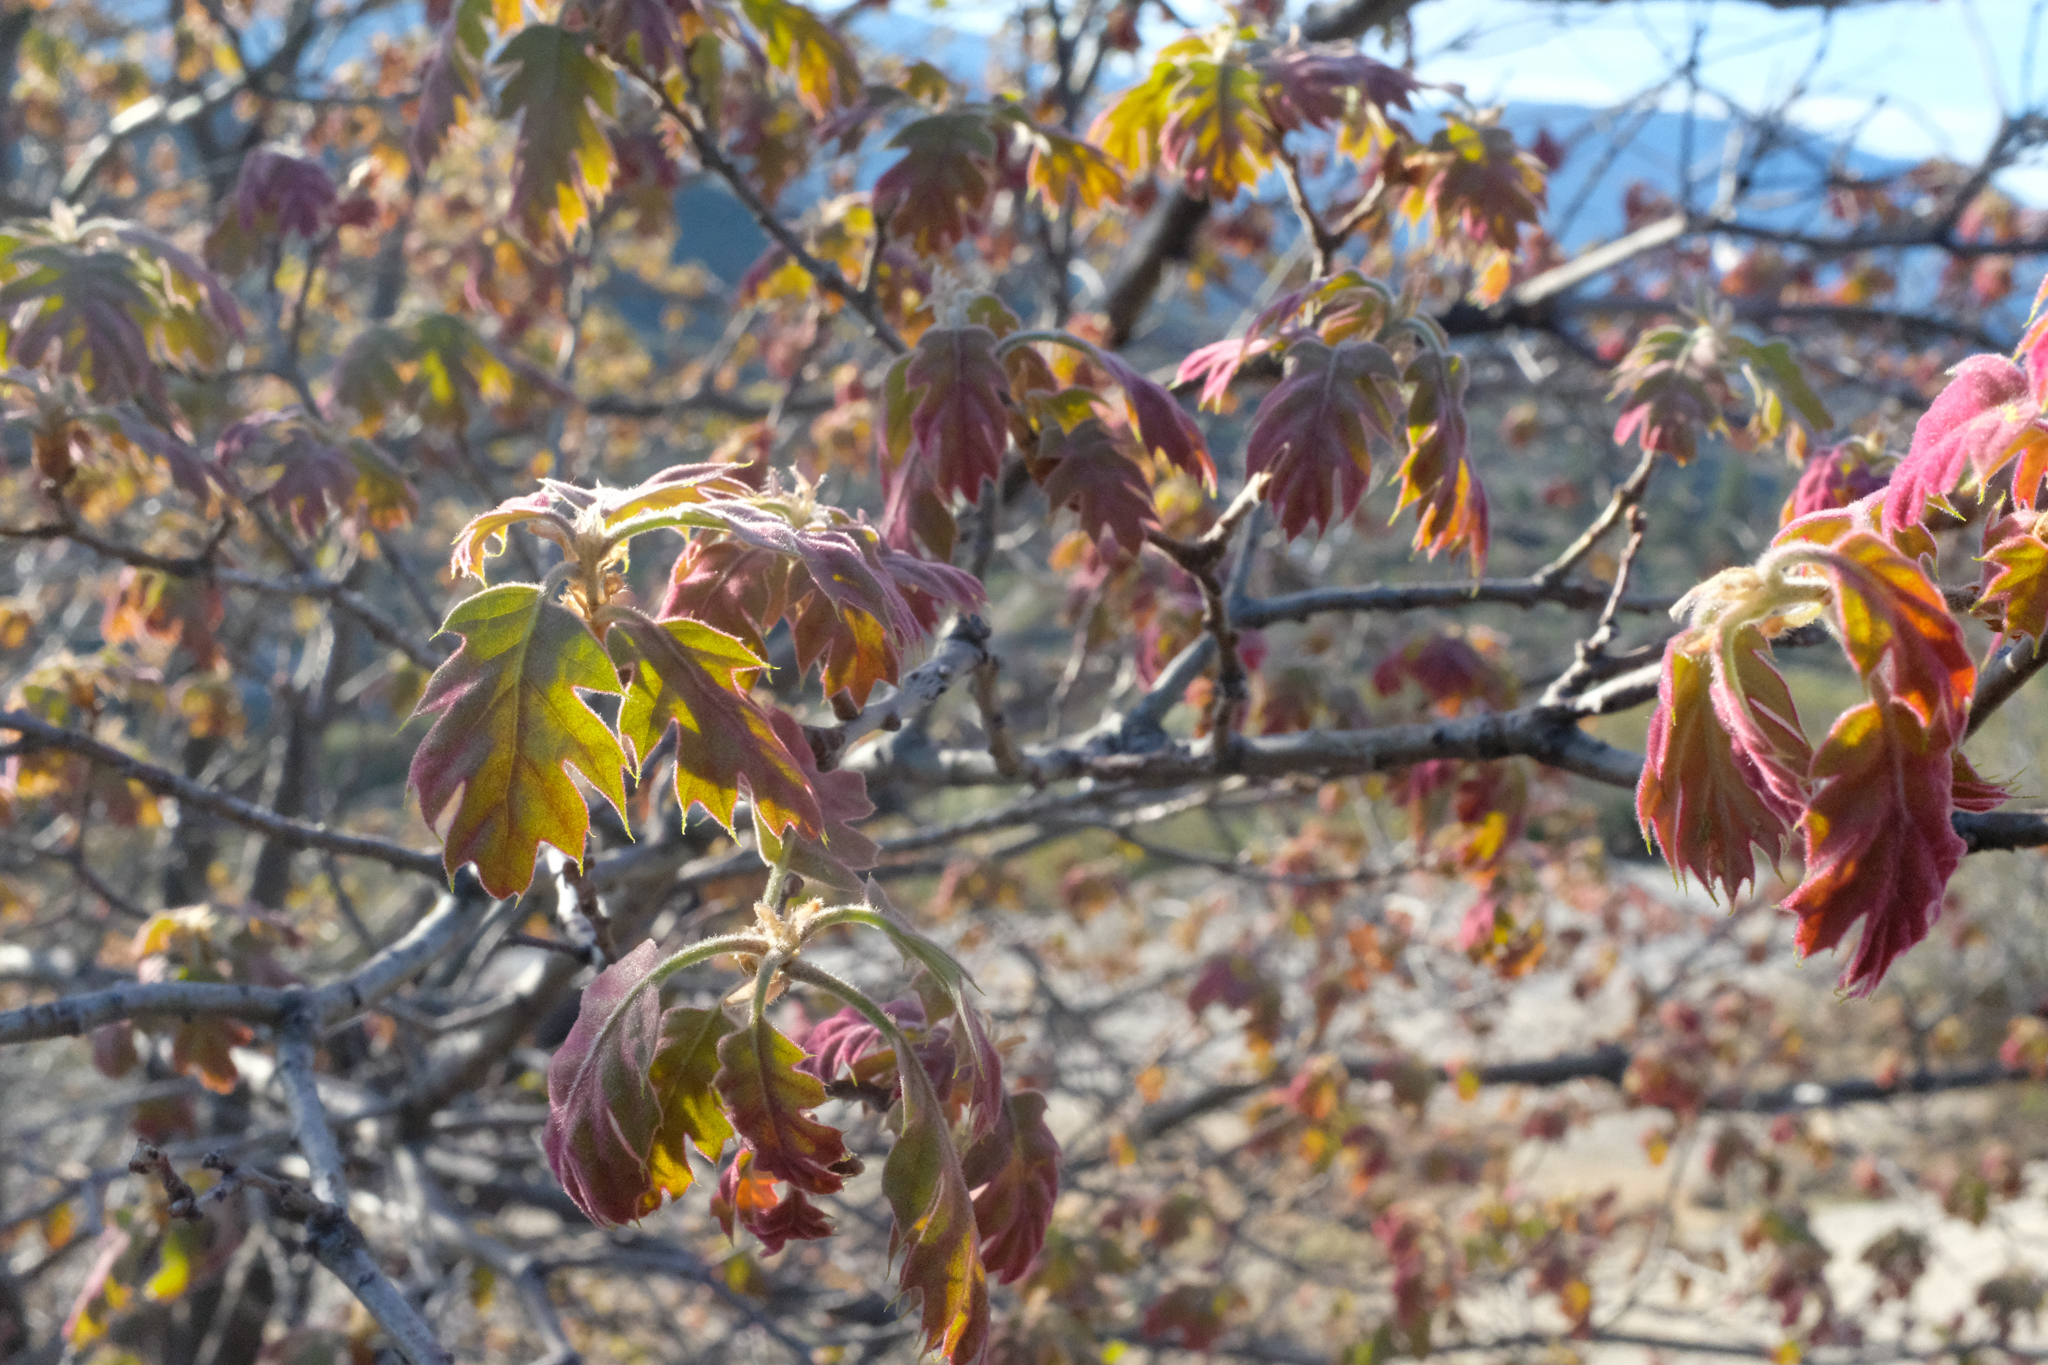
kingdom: Plantae
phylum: Tracheophyta
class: Magnoliopsida
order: Fagales
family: Fagaceae
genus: Quercus
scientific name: Quercus kelloggii
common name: California black oak
